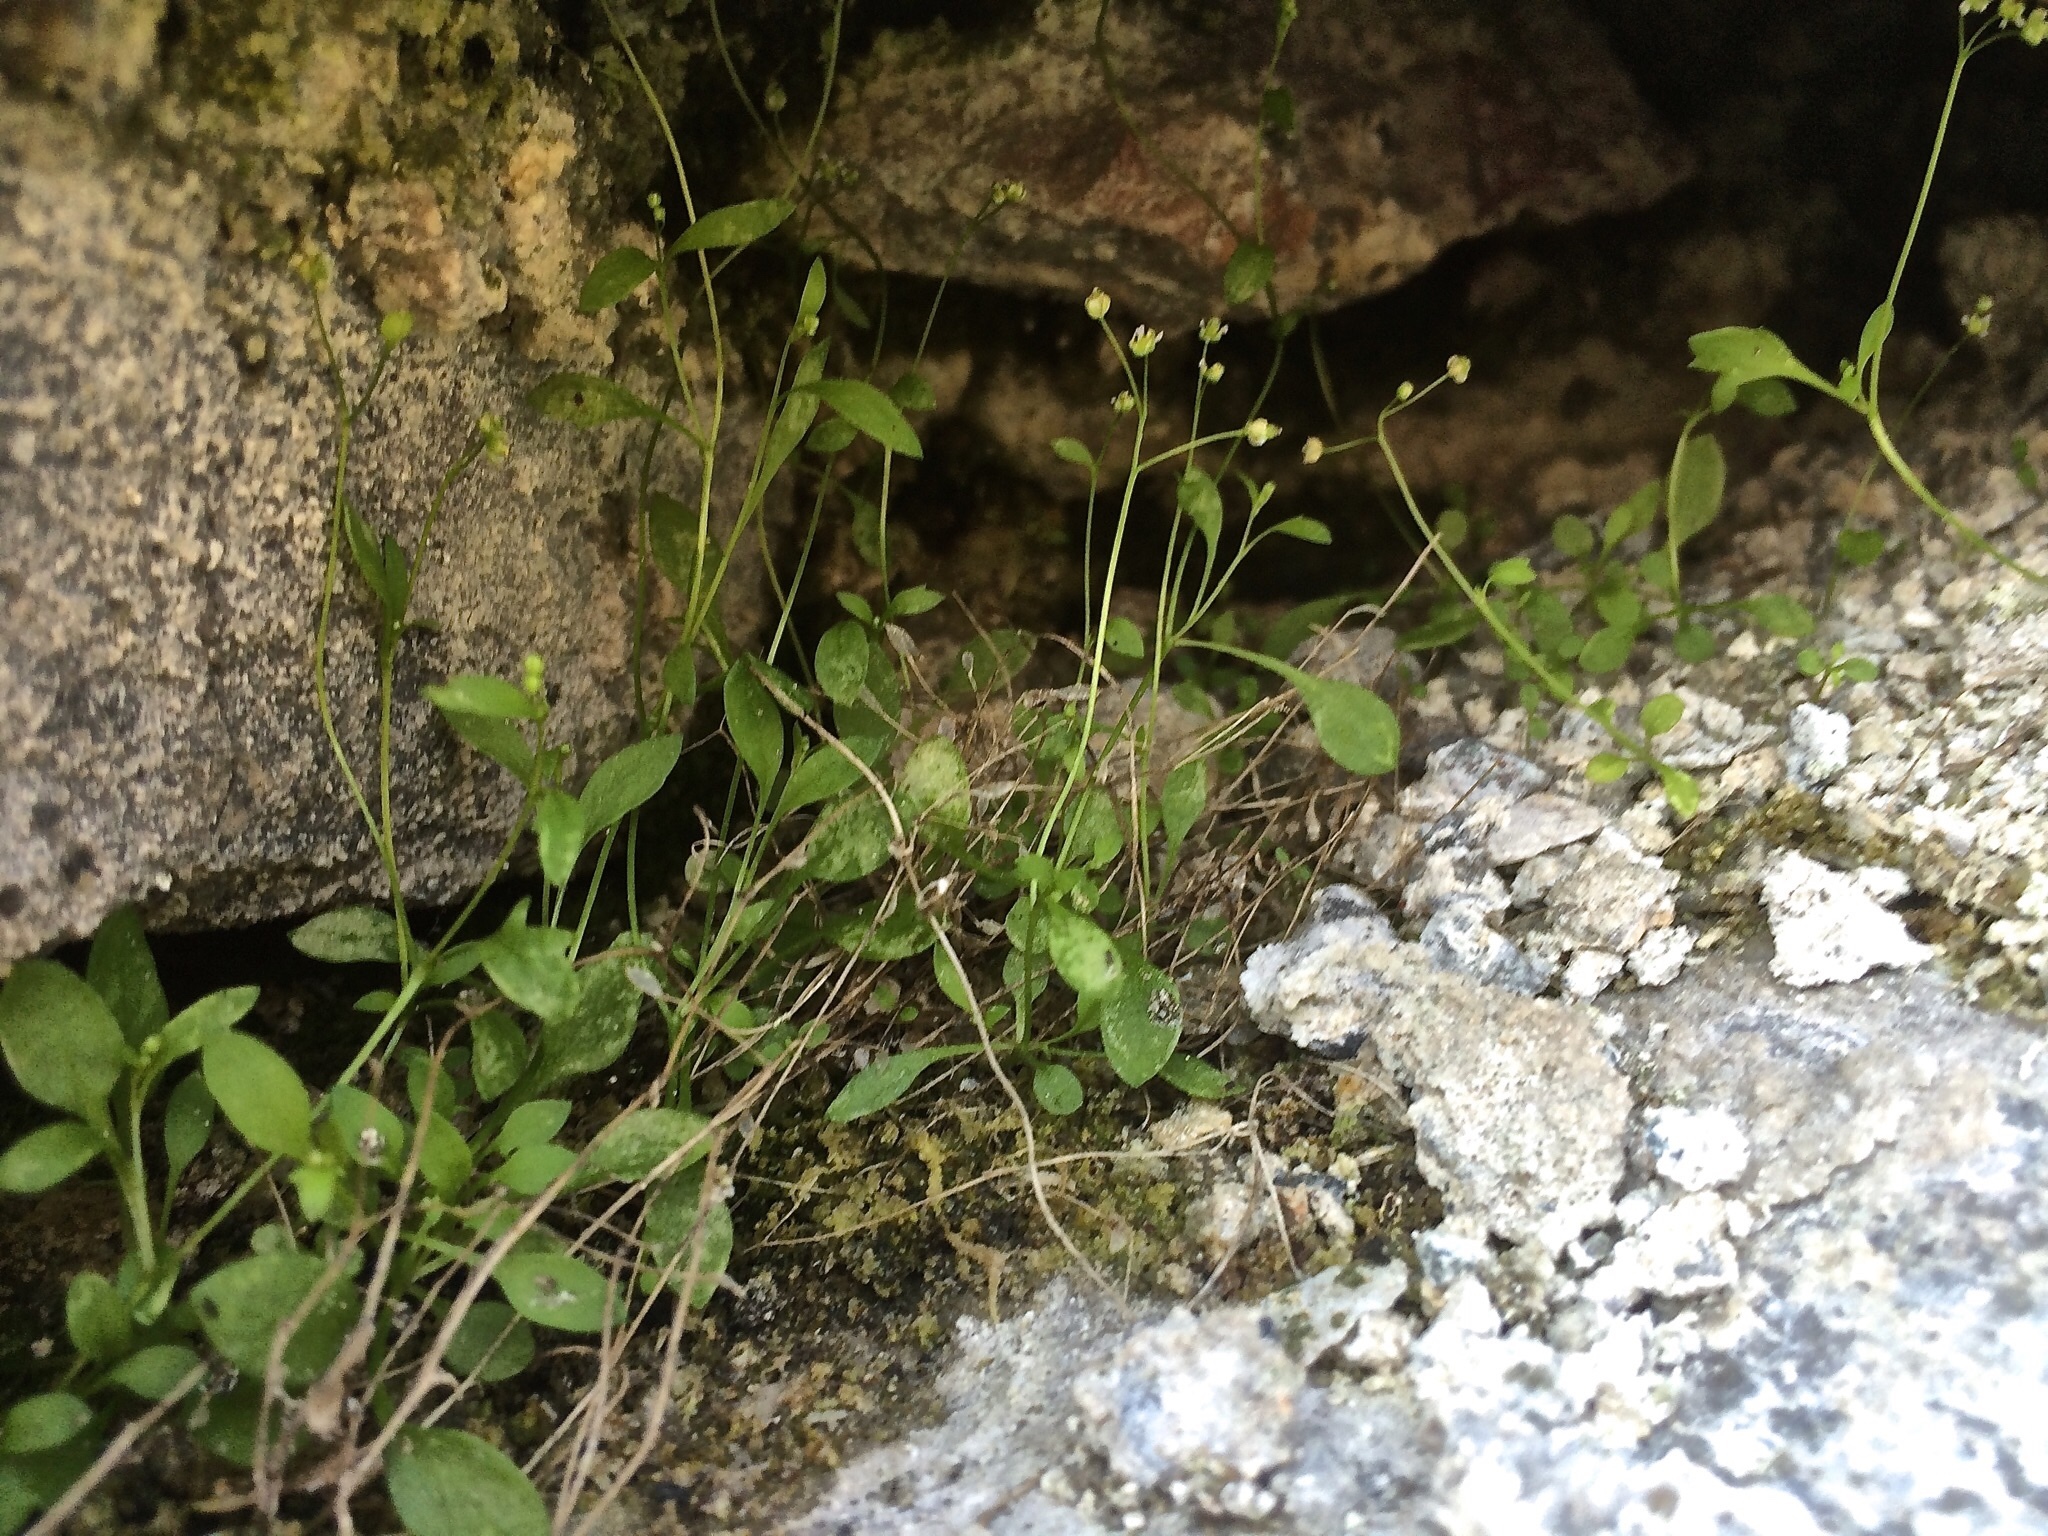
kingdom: Plantae
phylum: Tracheophyta
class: Magnoliopsida
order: Brassicales
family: Brassicaceae
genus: Hornungia
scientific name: Hornungia procumbens
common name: Oval purse
